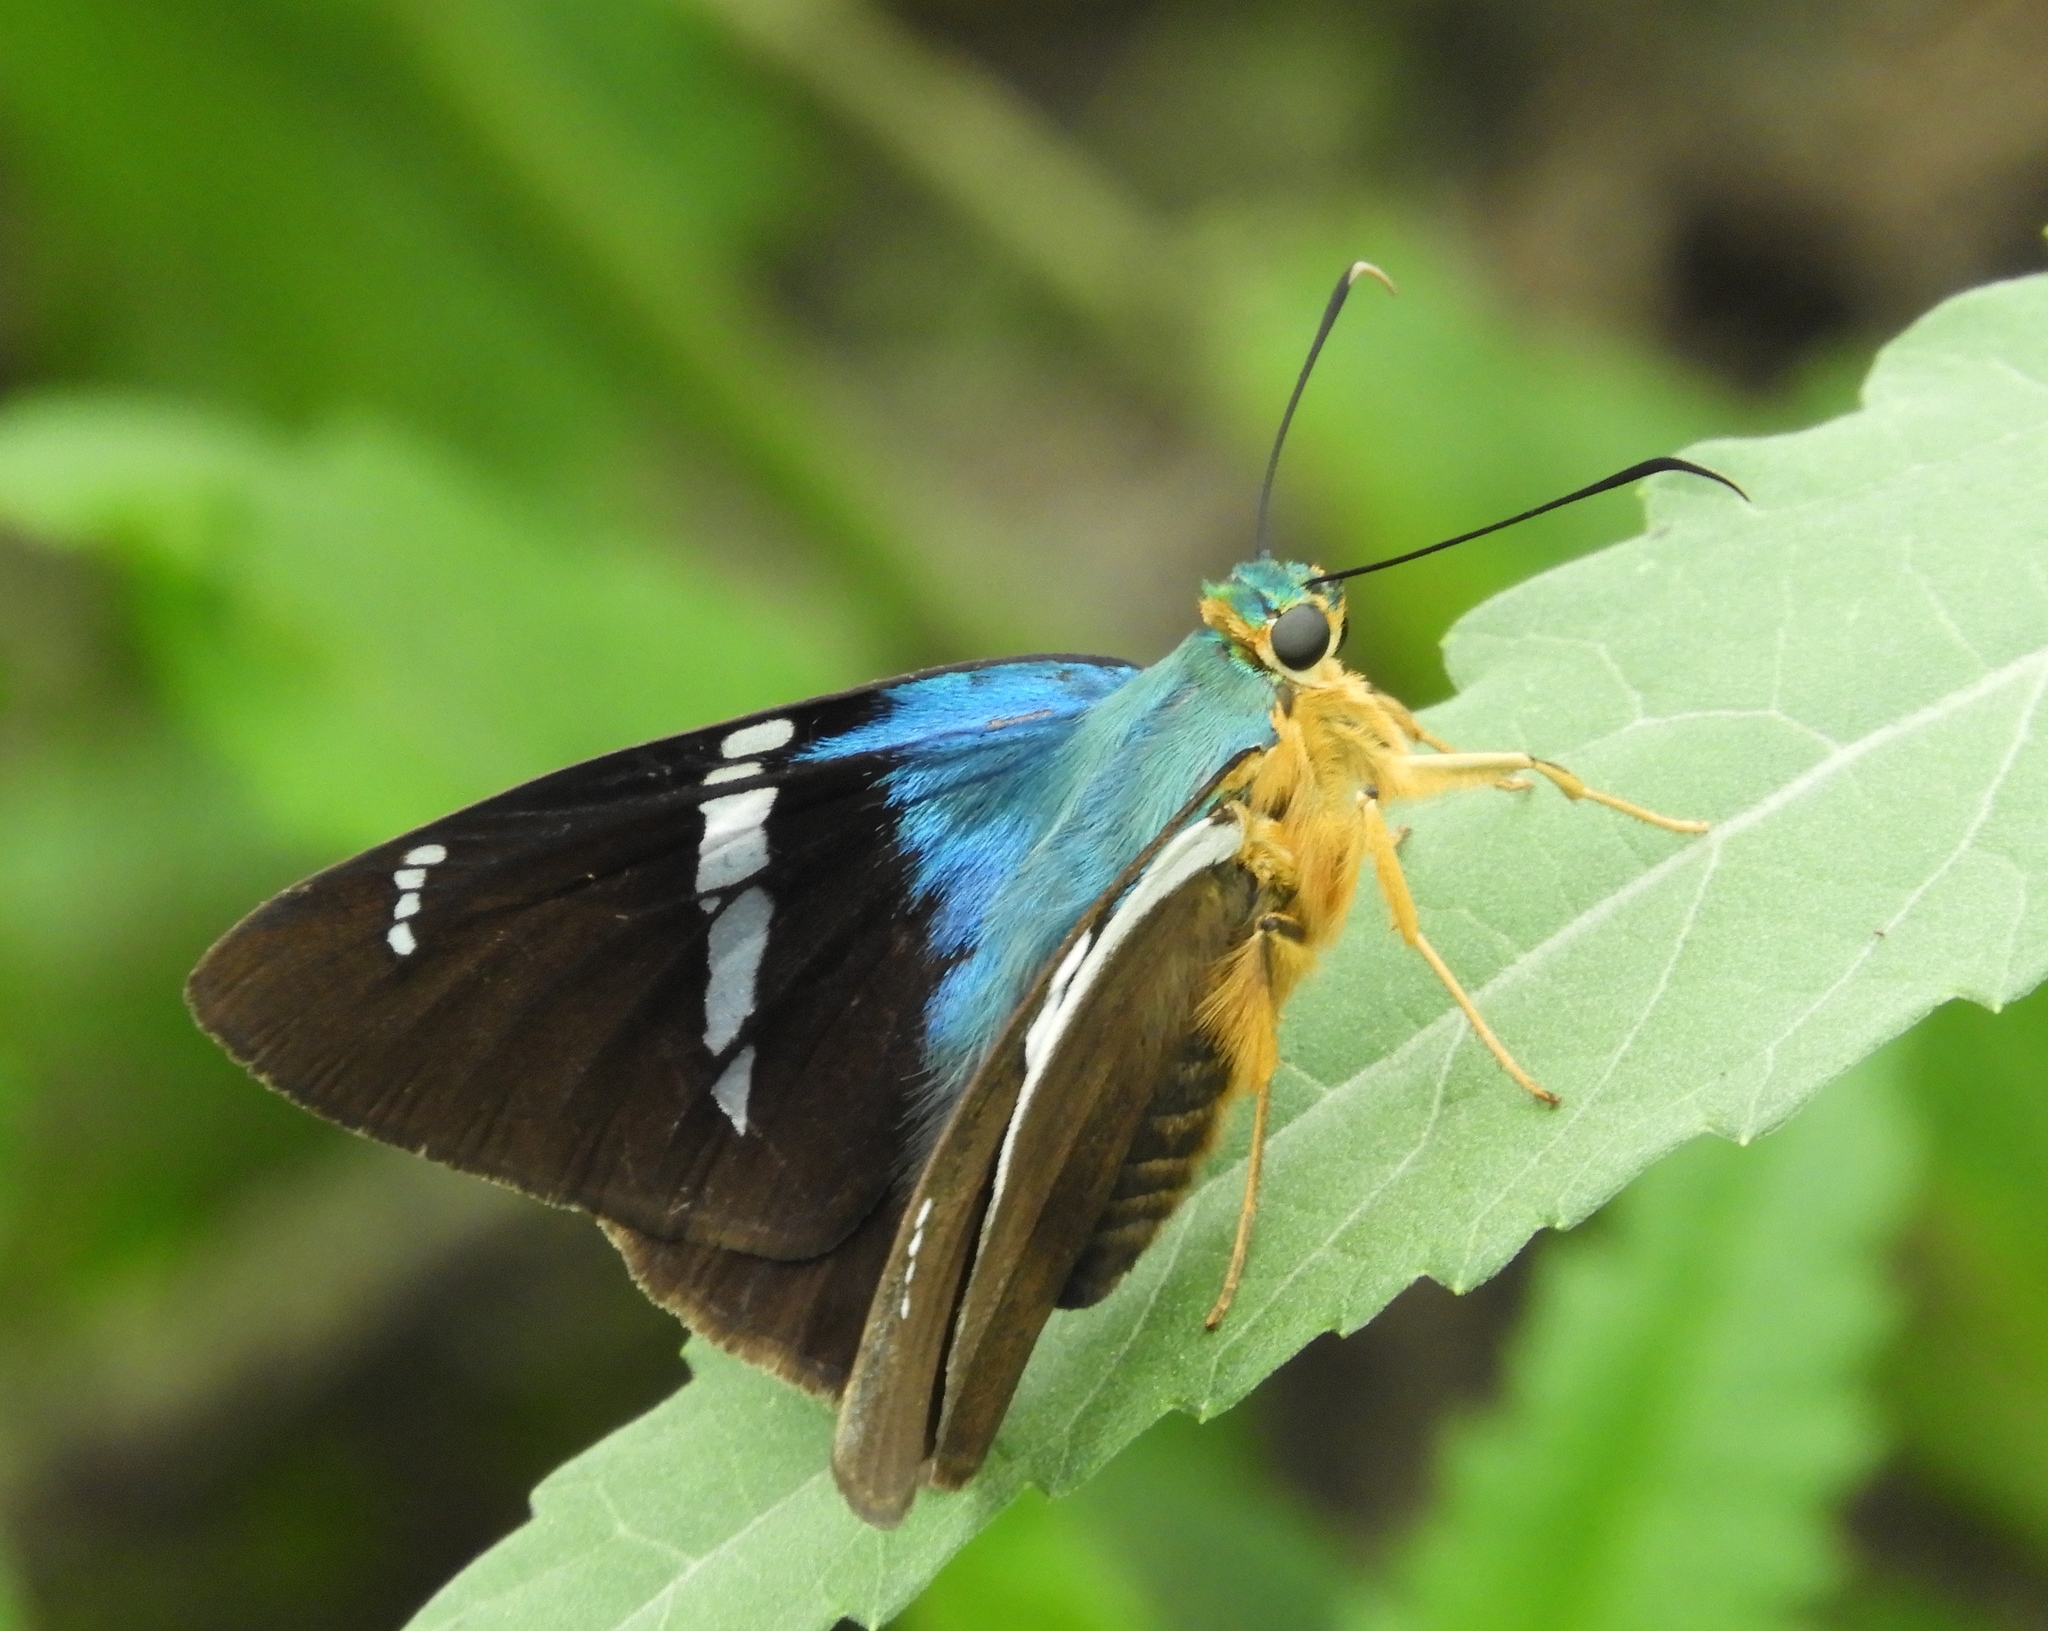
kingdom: Animalia
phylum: Arthropoda
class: Insecta
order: Lepidoptera
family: Hesperiidae
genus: Astraptes
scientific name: Astraptes fulgerator
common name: Two-barred flasher
